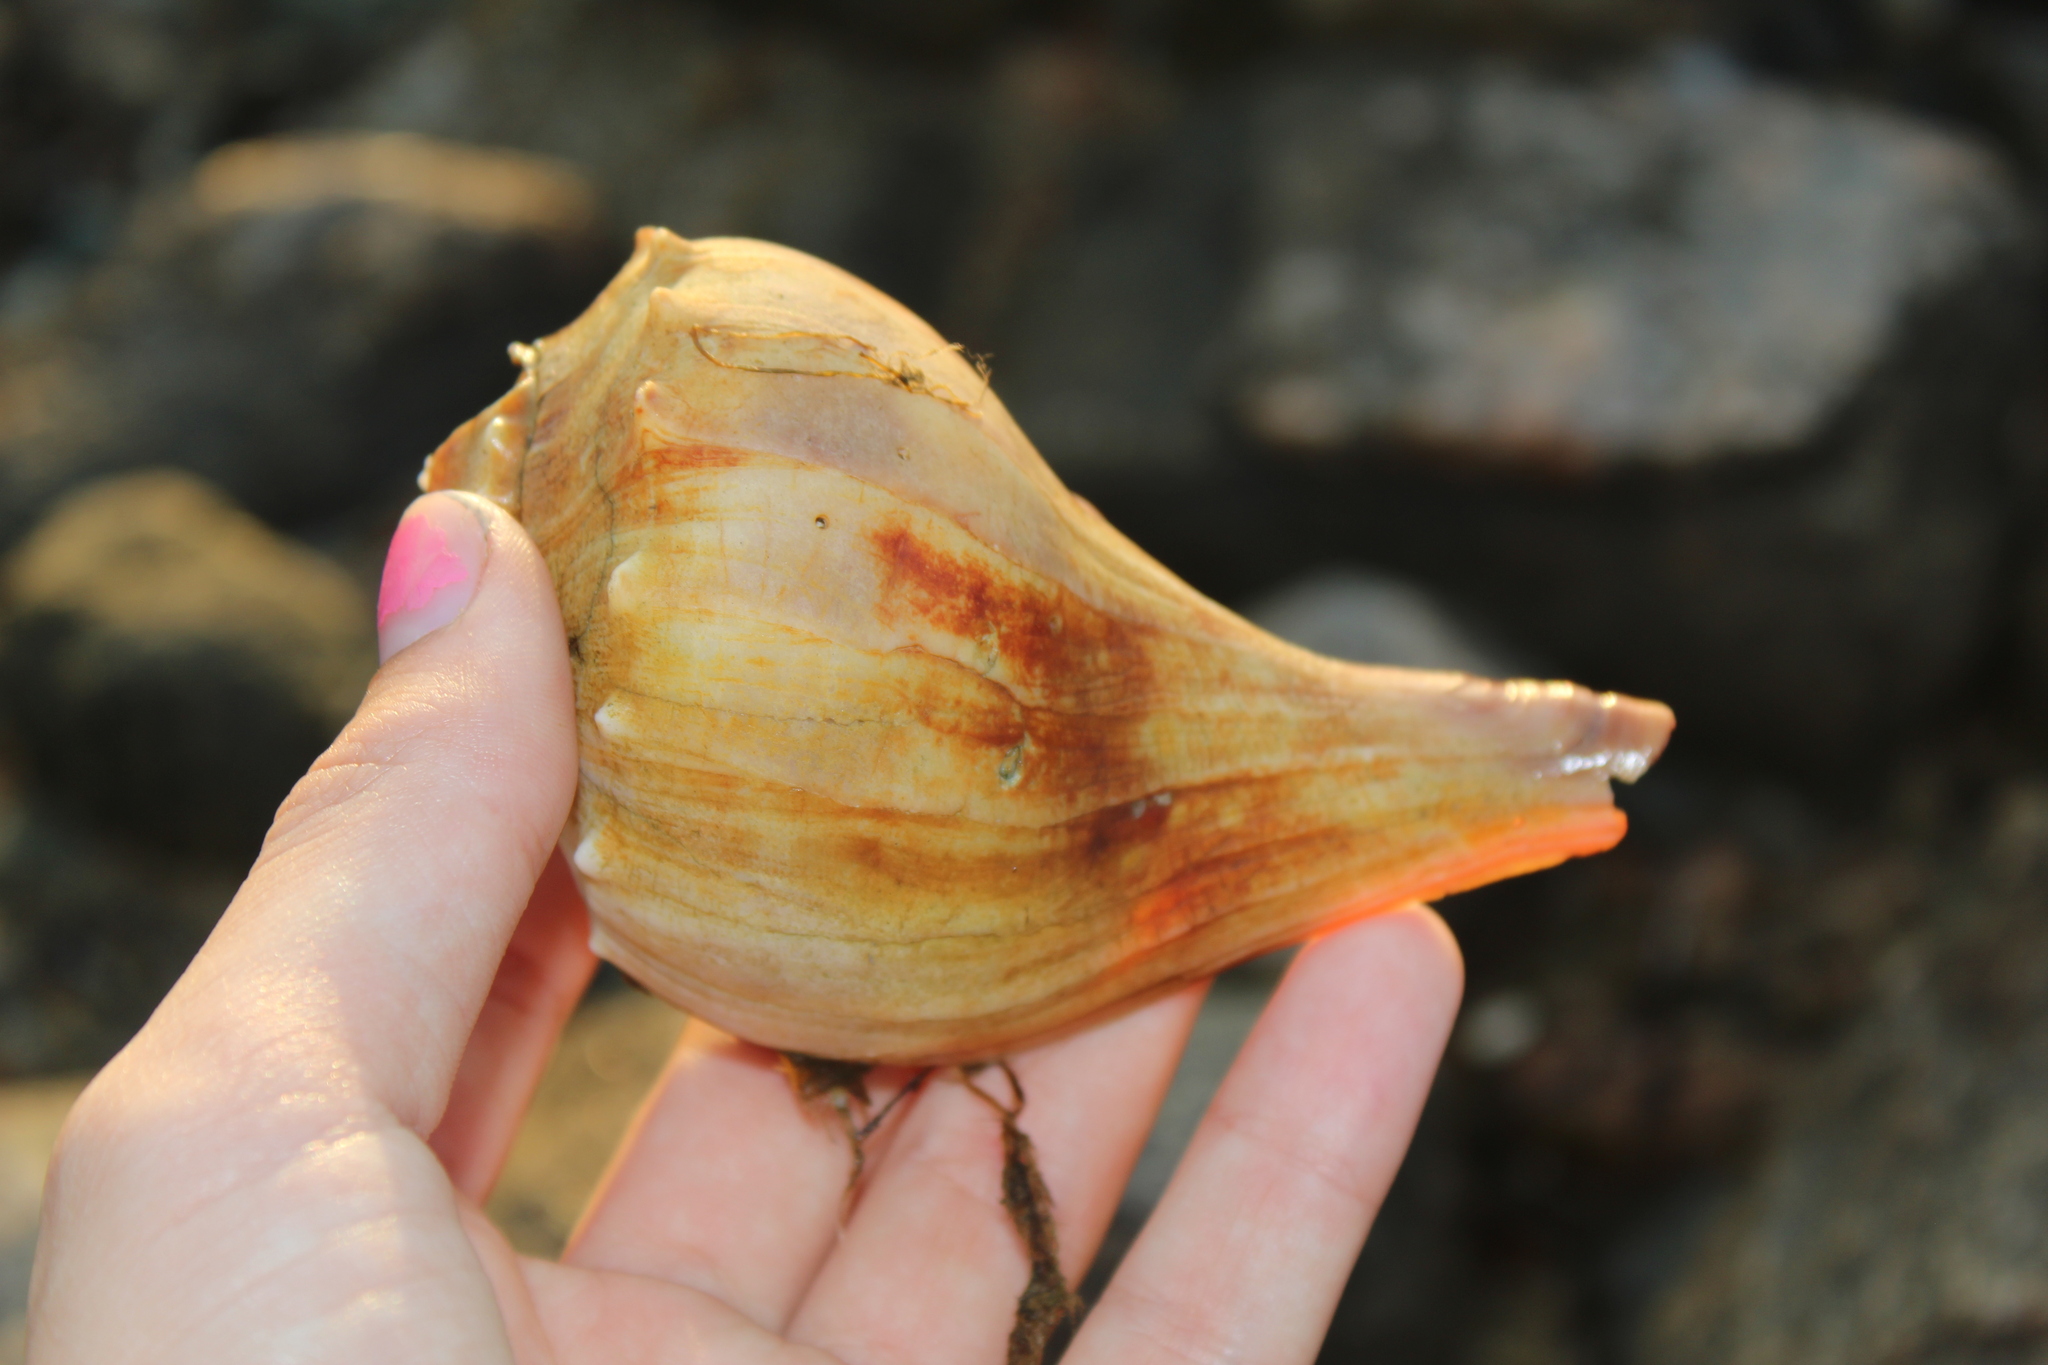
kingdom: Animalia
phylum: Mollusca
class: Gastropoda
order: Neogastropoda
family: Busyconidae
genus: Busycon
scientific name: Busycon carica
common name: Knobbed whelk
